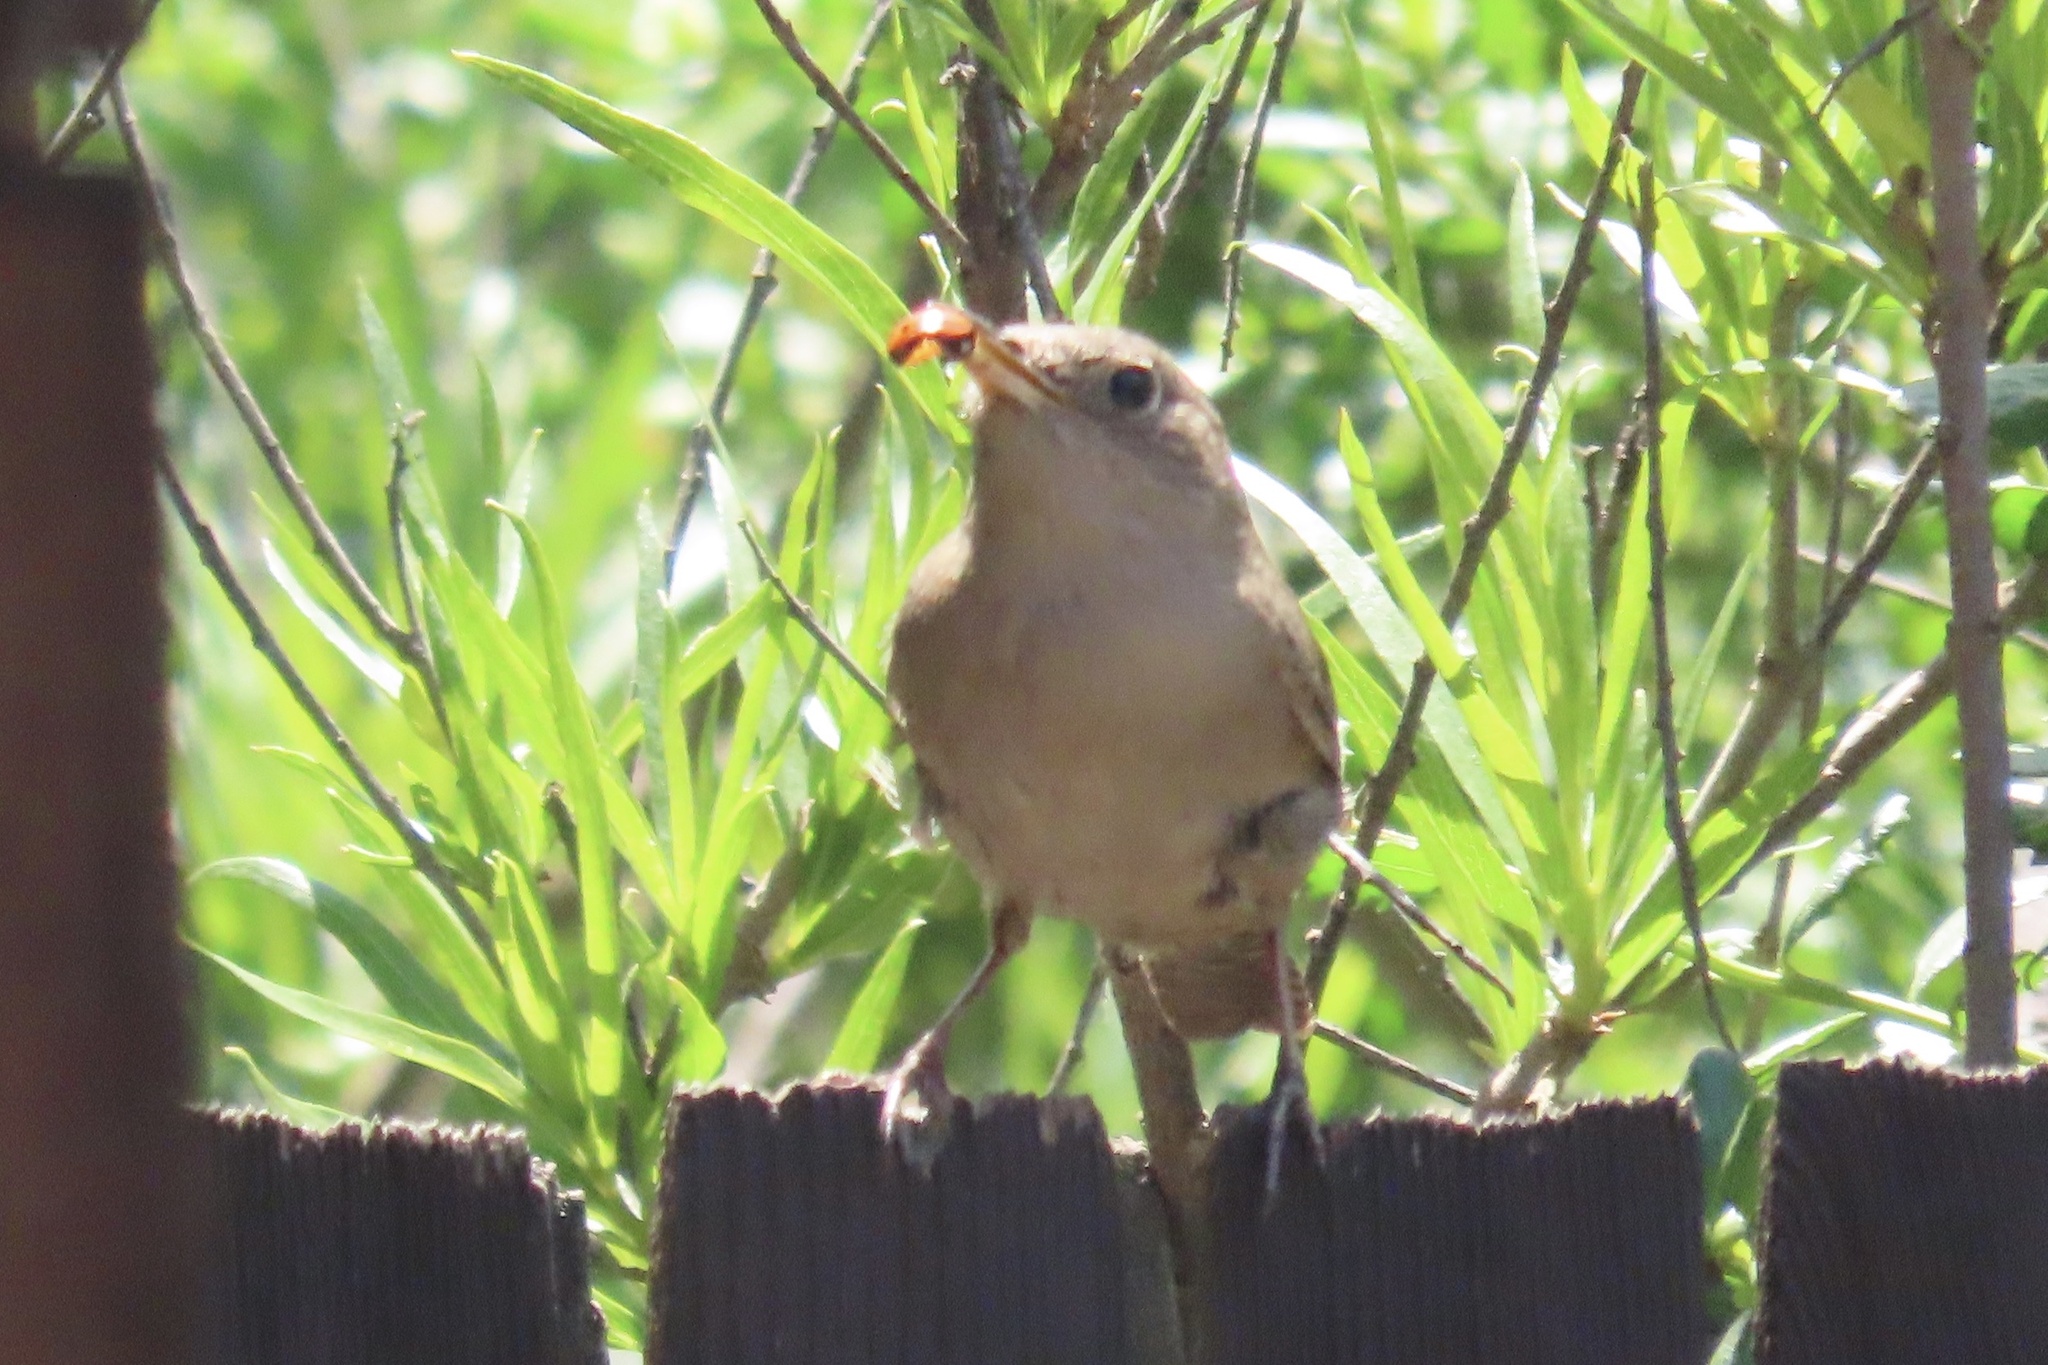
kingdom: Animalia
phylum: Chordata
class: Aves
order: Passeriformes
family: Troglodytidae
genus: Troglodytes
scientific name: Troglodytes aedon
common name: House wren
